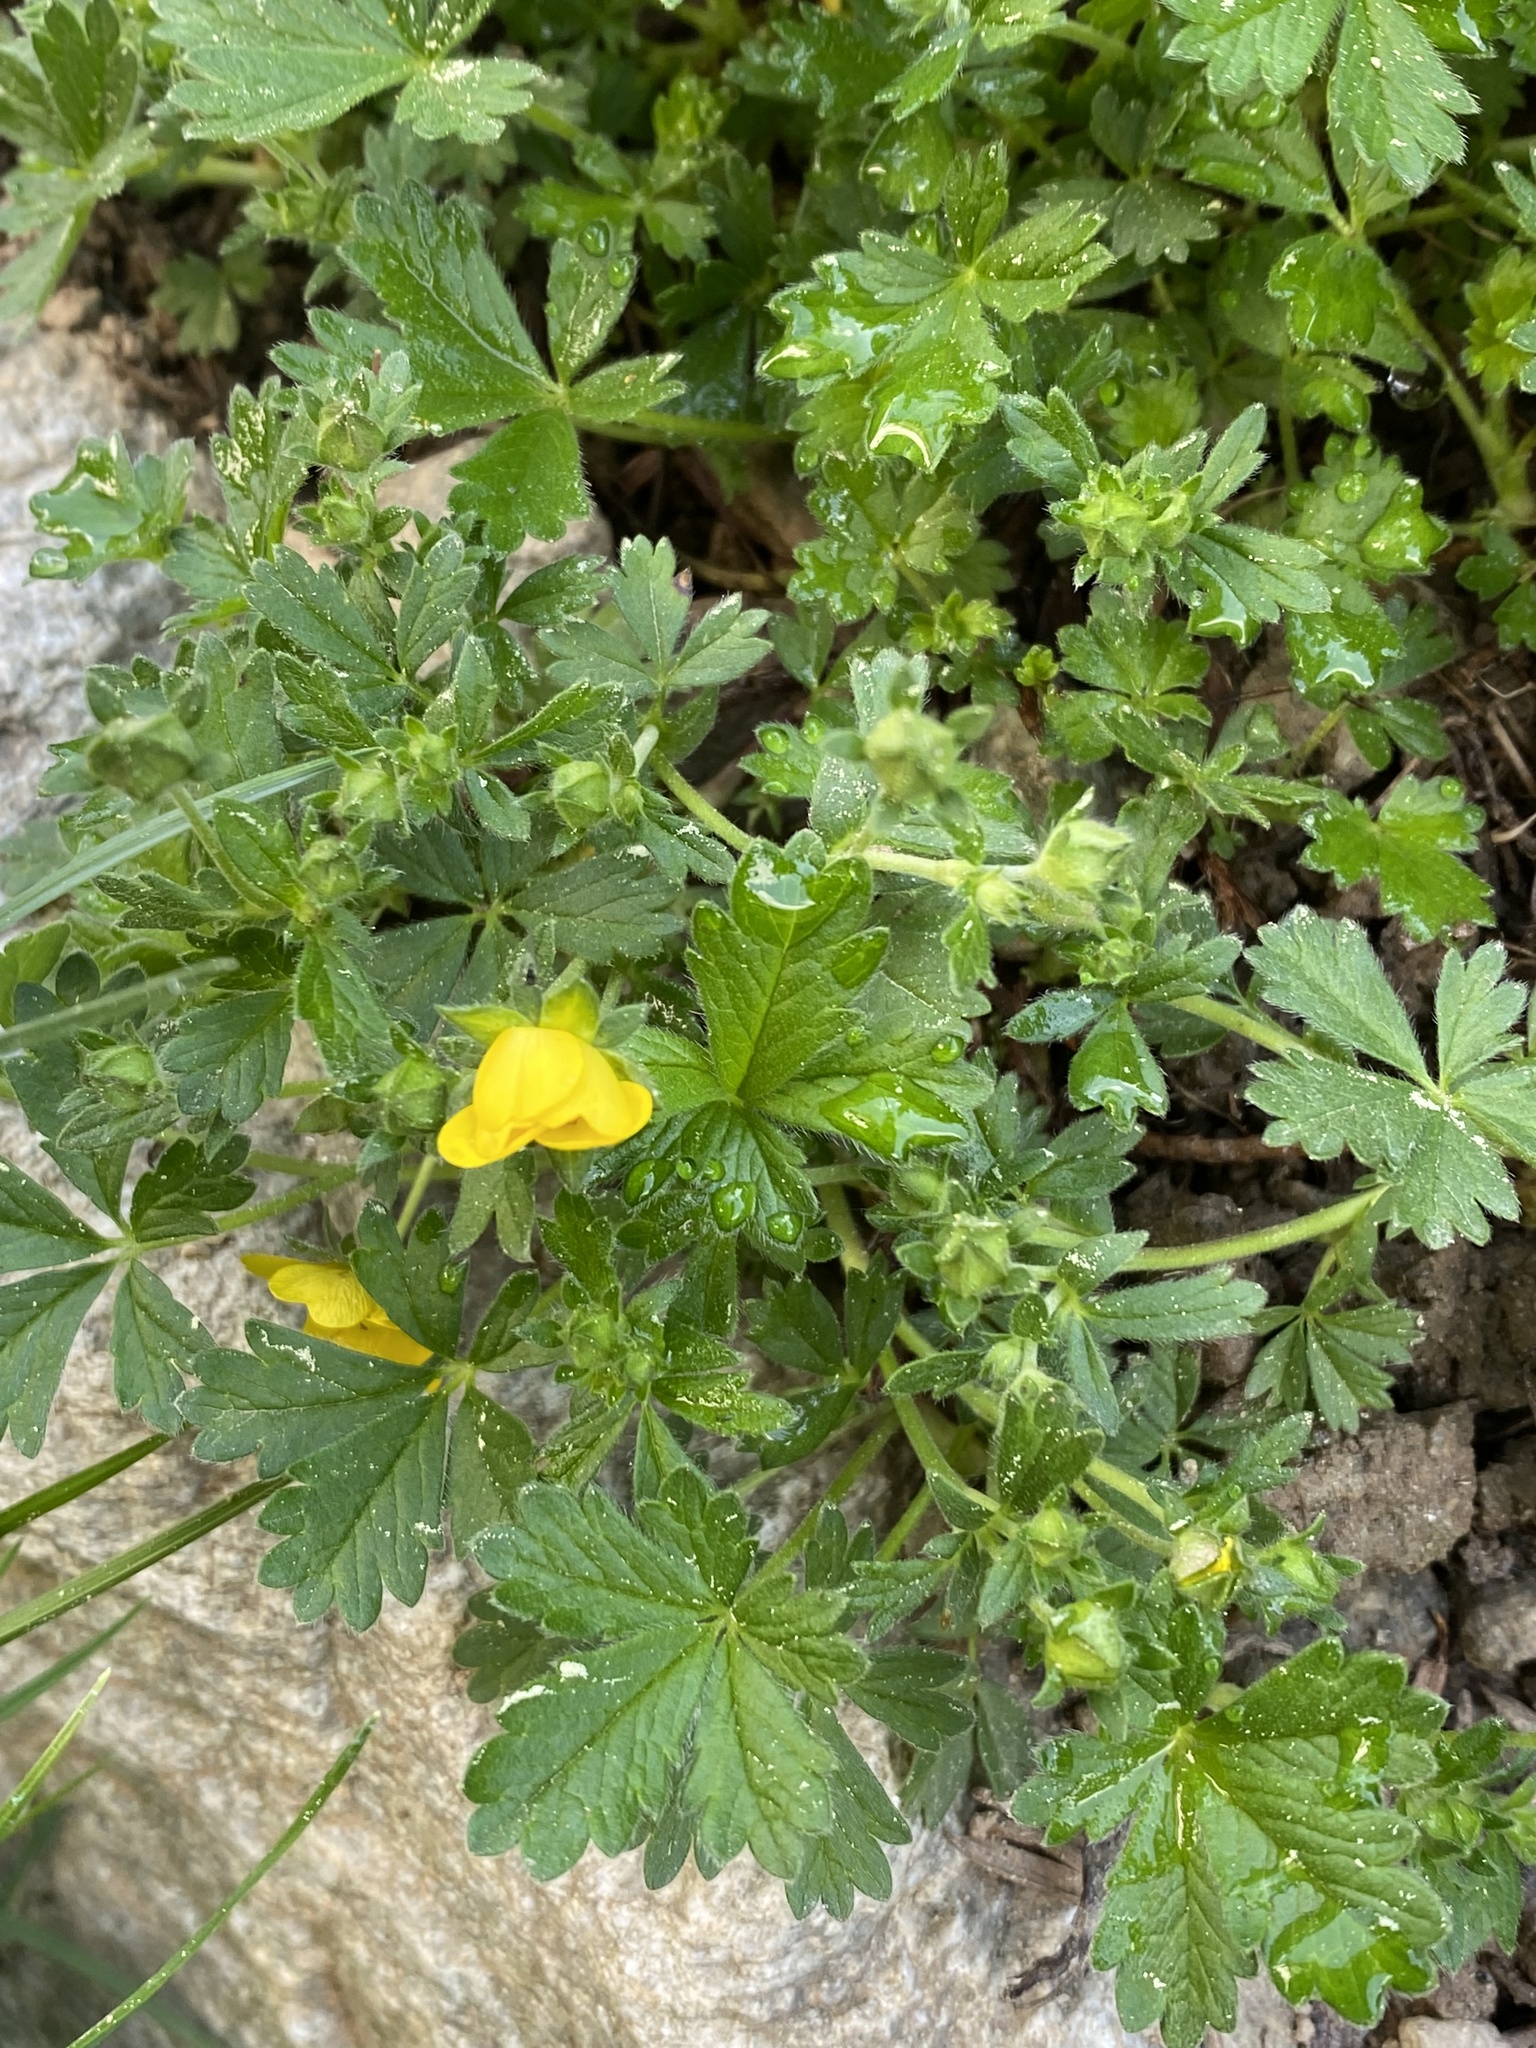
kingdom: Plantae
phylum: Tracheophyta
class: Magnoliopsida
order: Rosales
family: Rosaceae
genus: Potentilla
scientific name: Potentilla crantzii
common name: Alpine cinquefoil
